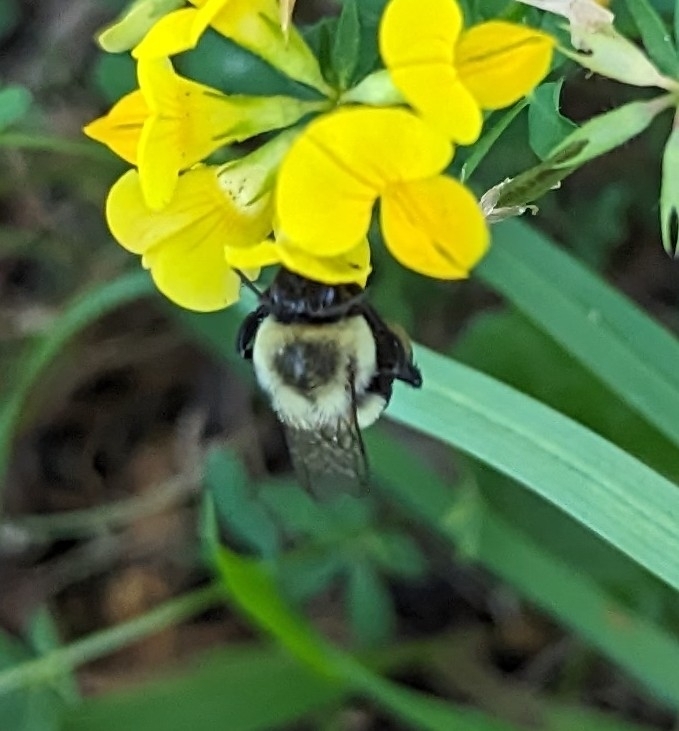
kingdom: Animalia
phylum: Arthropoda
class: Insecta
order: Hymenoptera
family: Apidae
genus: Bombus
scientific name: Bombus impatiens
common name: Common eastern bumble bee
